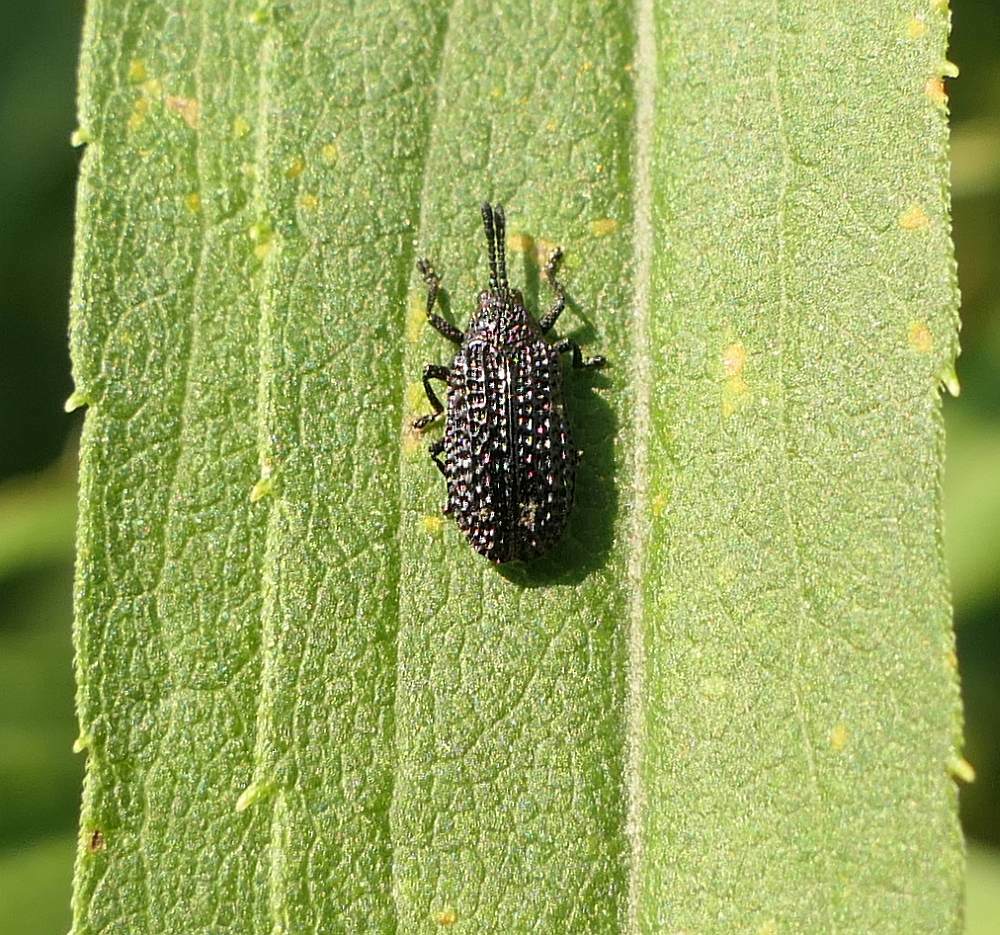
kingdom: Animalia
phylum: Arthropoda
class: Insecta
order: Coleoptera
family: Chrysomelidae
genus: Microrhopala
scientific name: Microrhopala excavata
